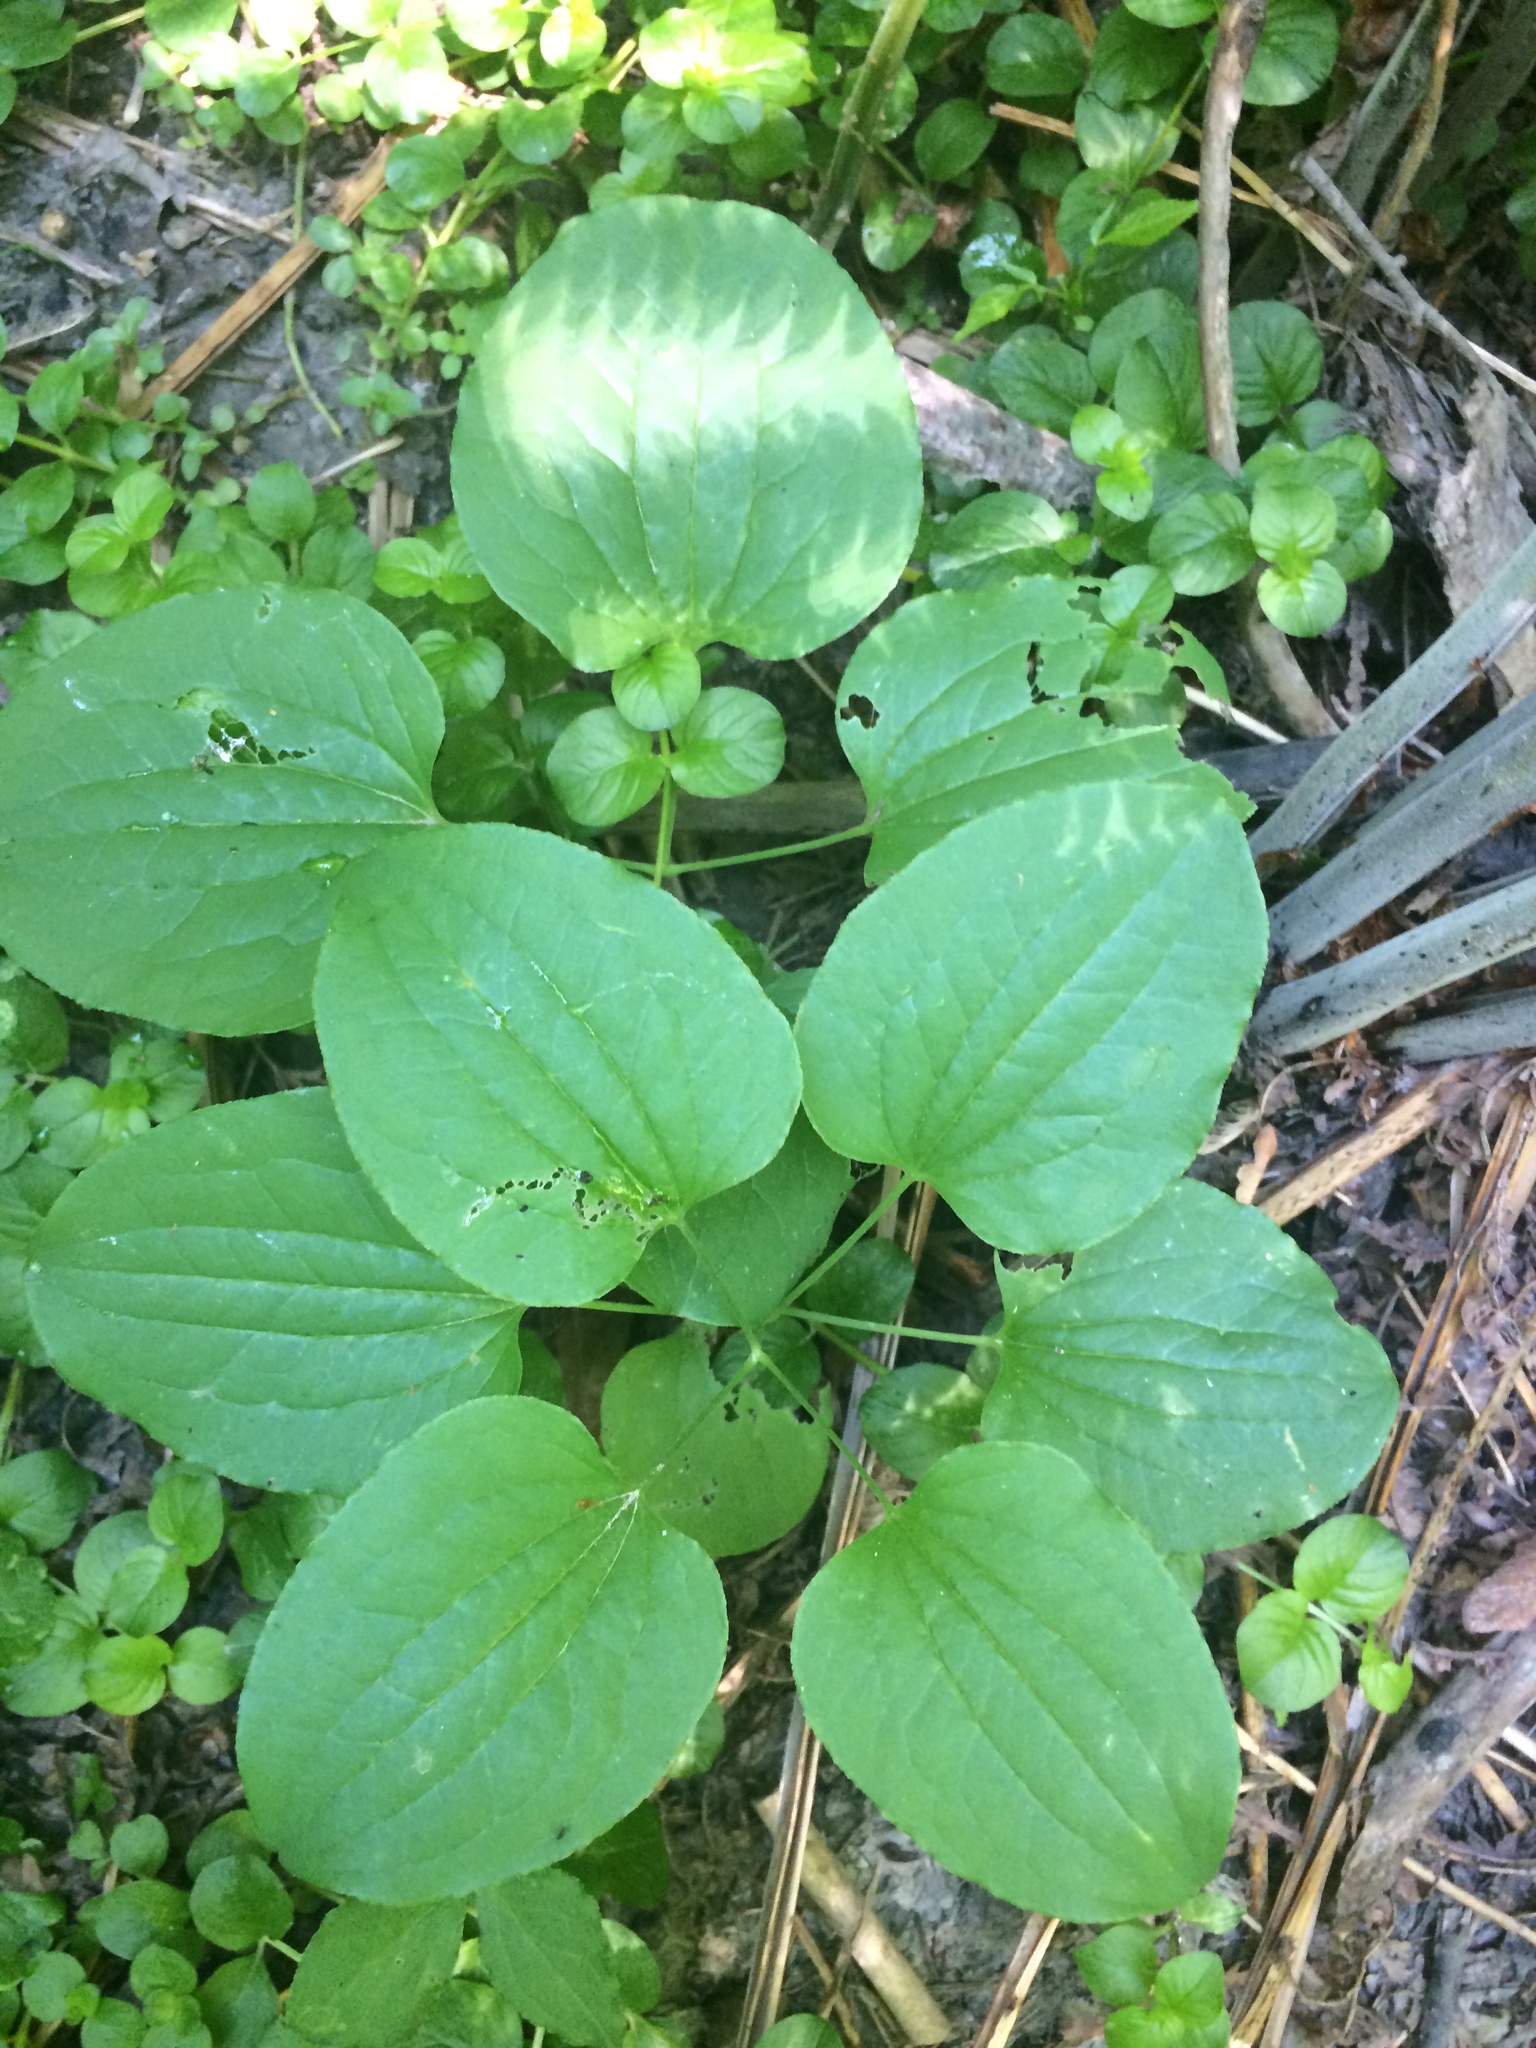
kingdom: Plantae
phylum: Tracheophyta
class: Liliopsida
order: Liliales
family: Smilacaceae
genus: Smilax
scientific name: Smilax herbacea
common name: Jacob's-ladder
